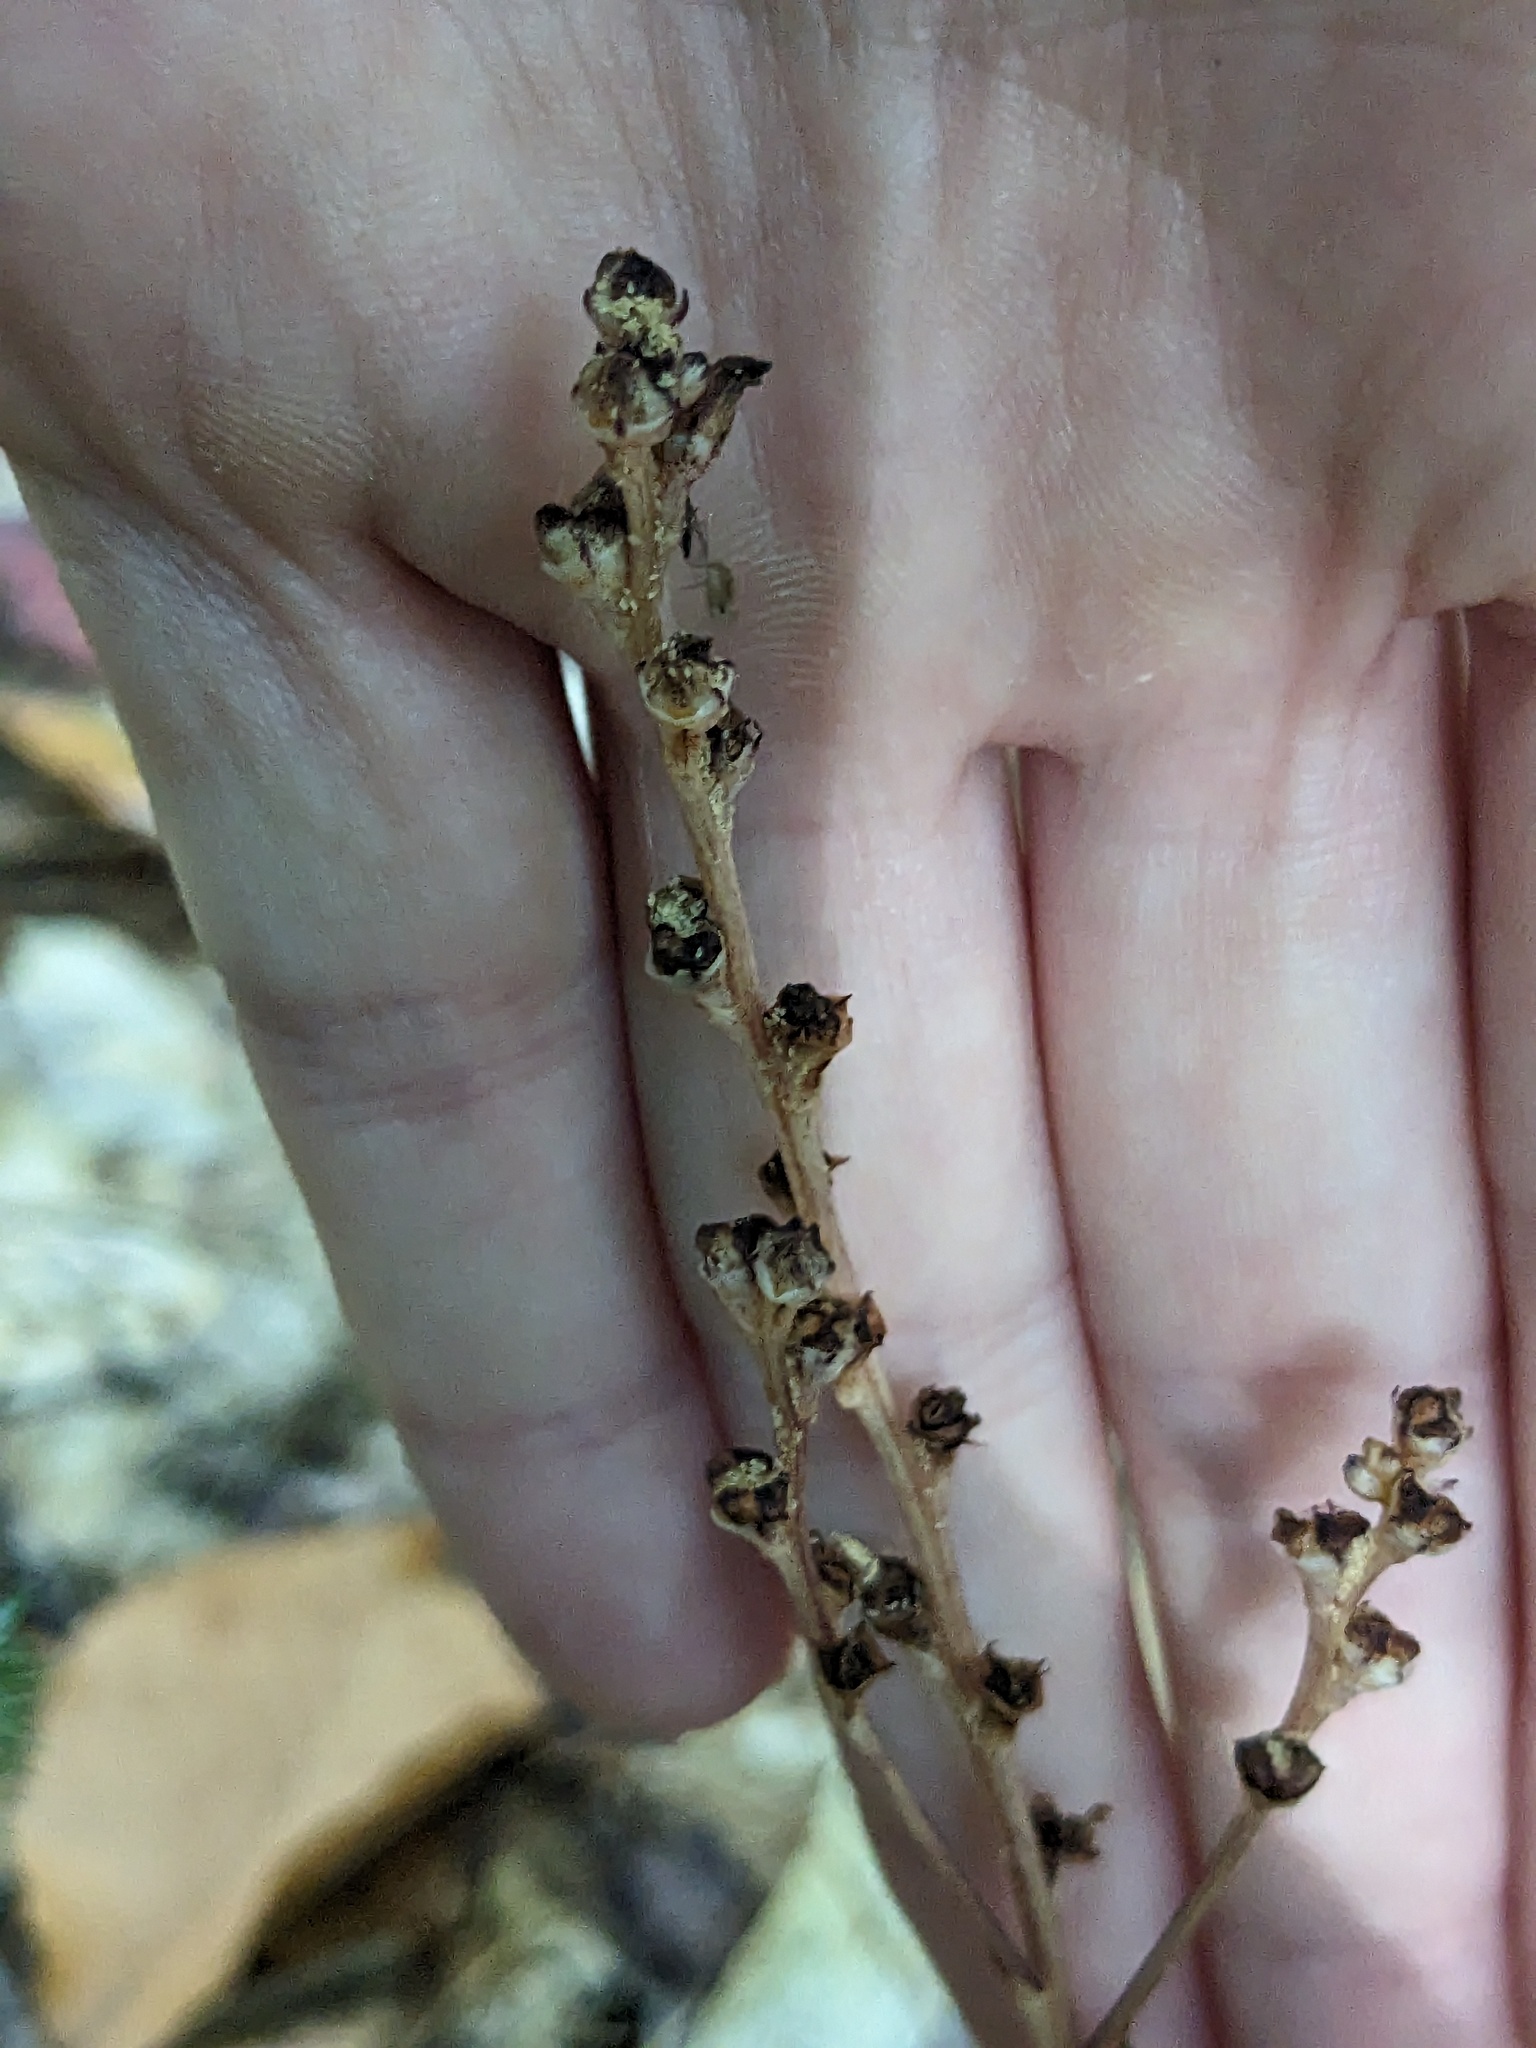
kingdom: Plantae
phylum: Tracheophyta
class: Magnoliopsida
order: Lamiales
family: Orobanchaceae
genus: Epifagus
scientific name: Epifagus virginiana
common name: Beechdrops
